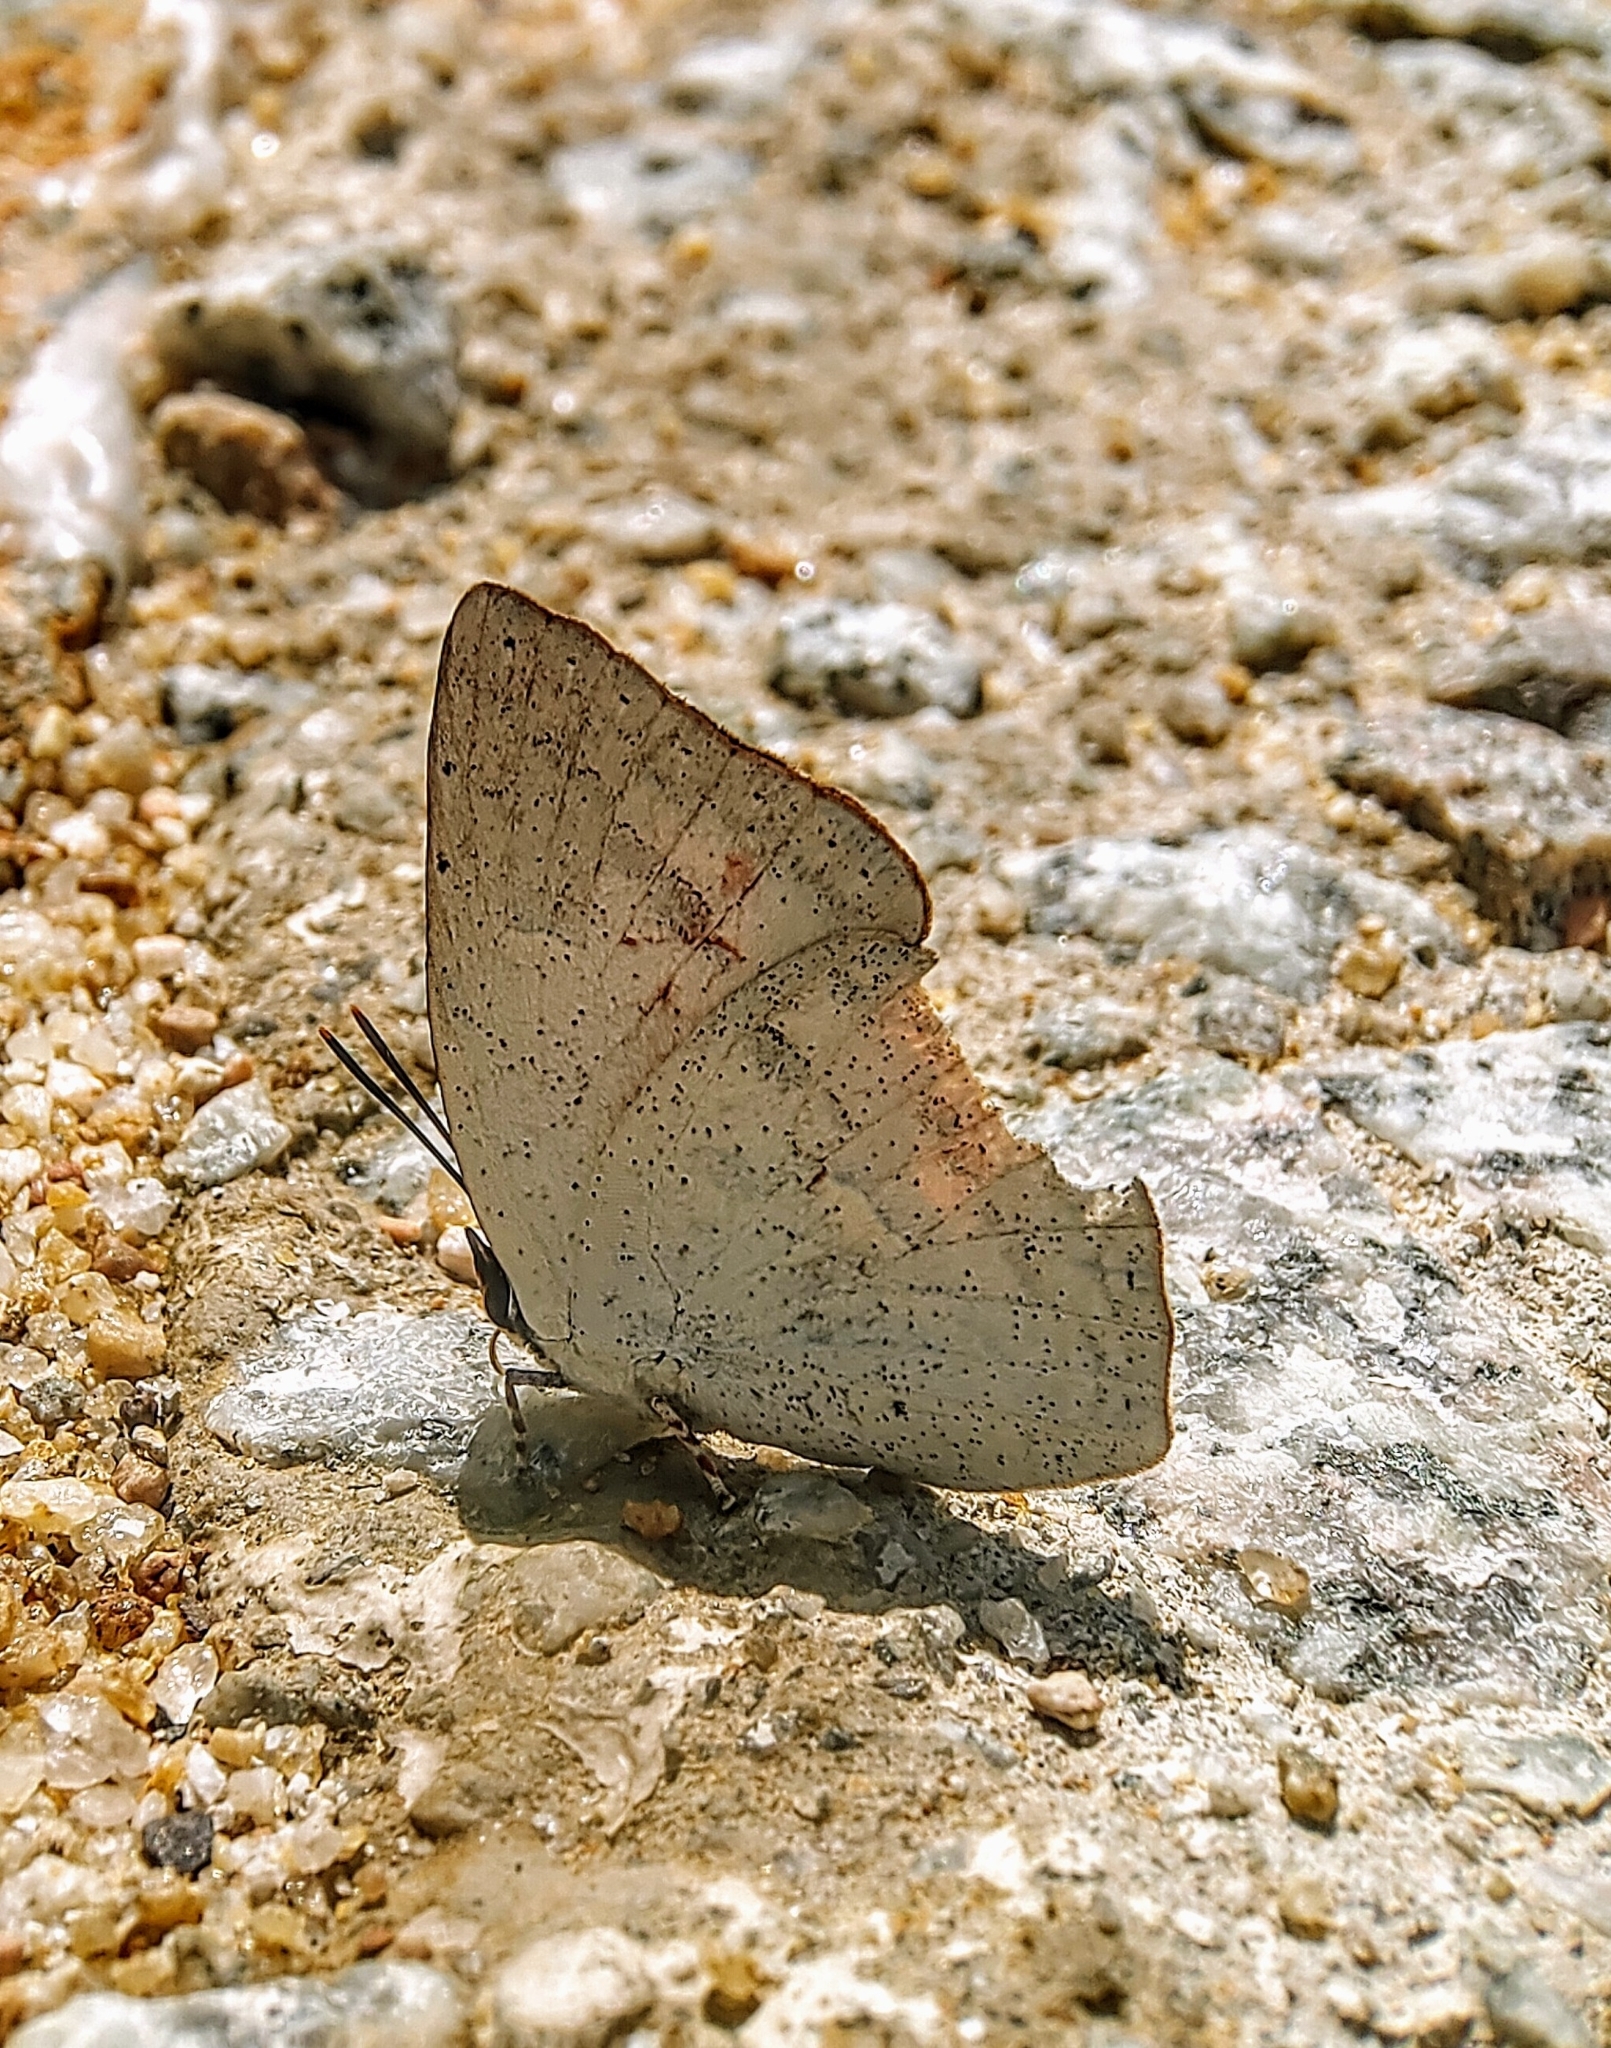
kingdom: Animalia
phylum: Arthropoda
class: Insecta
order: Lepidoptera
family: Lycaenidae
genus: Curetis
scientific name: Curetis santana
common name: Malayan sunbeam
